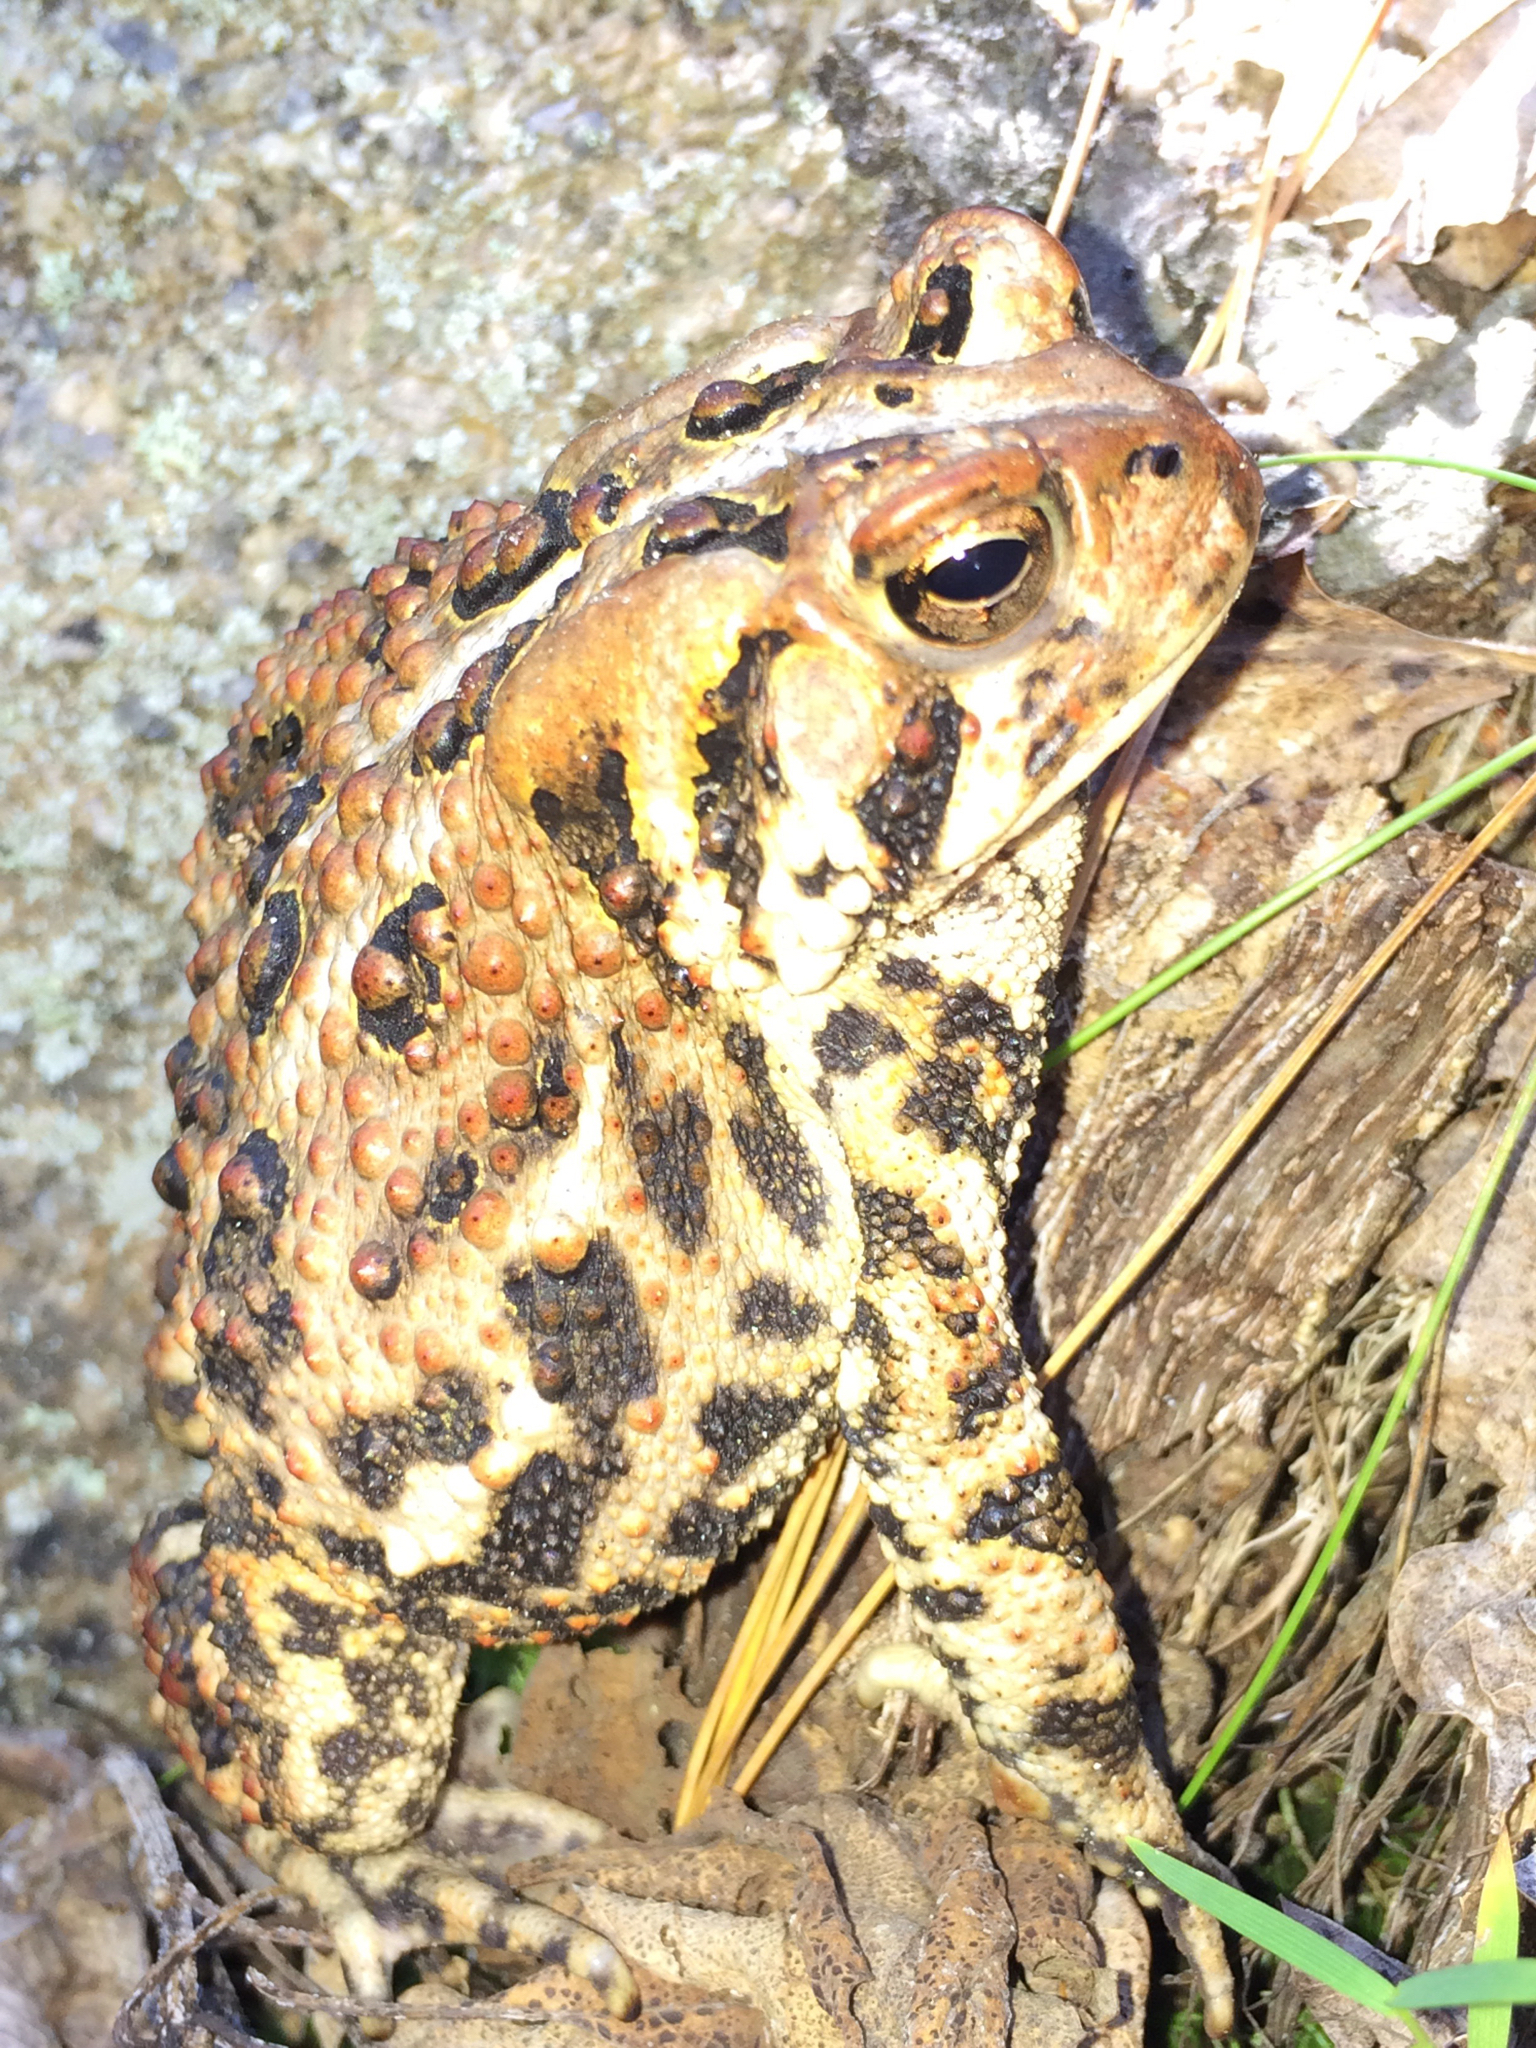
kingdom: Animalia
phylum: Chordata
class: Amphibia
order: Anura
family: Bufonidae
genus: Anaxyrus
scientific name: Anaxyrus americanus
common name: American toad
